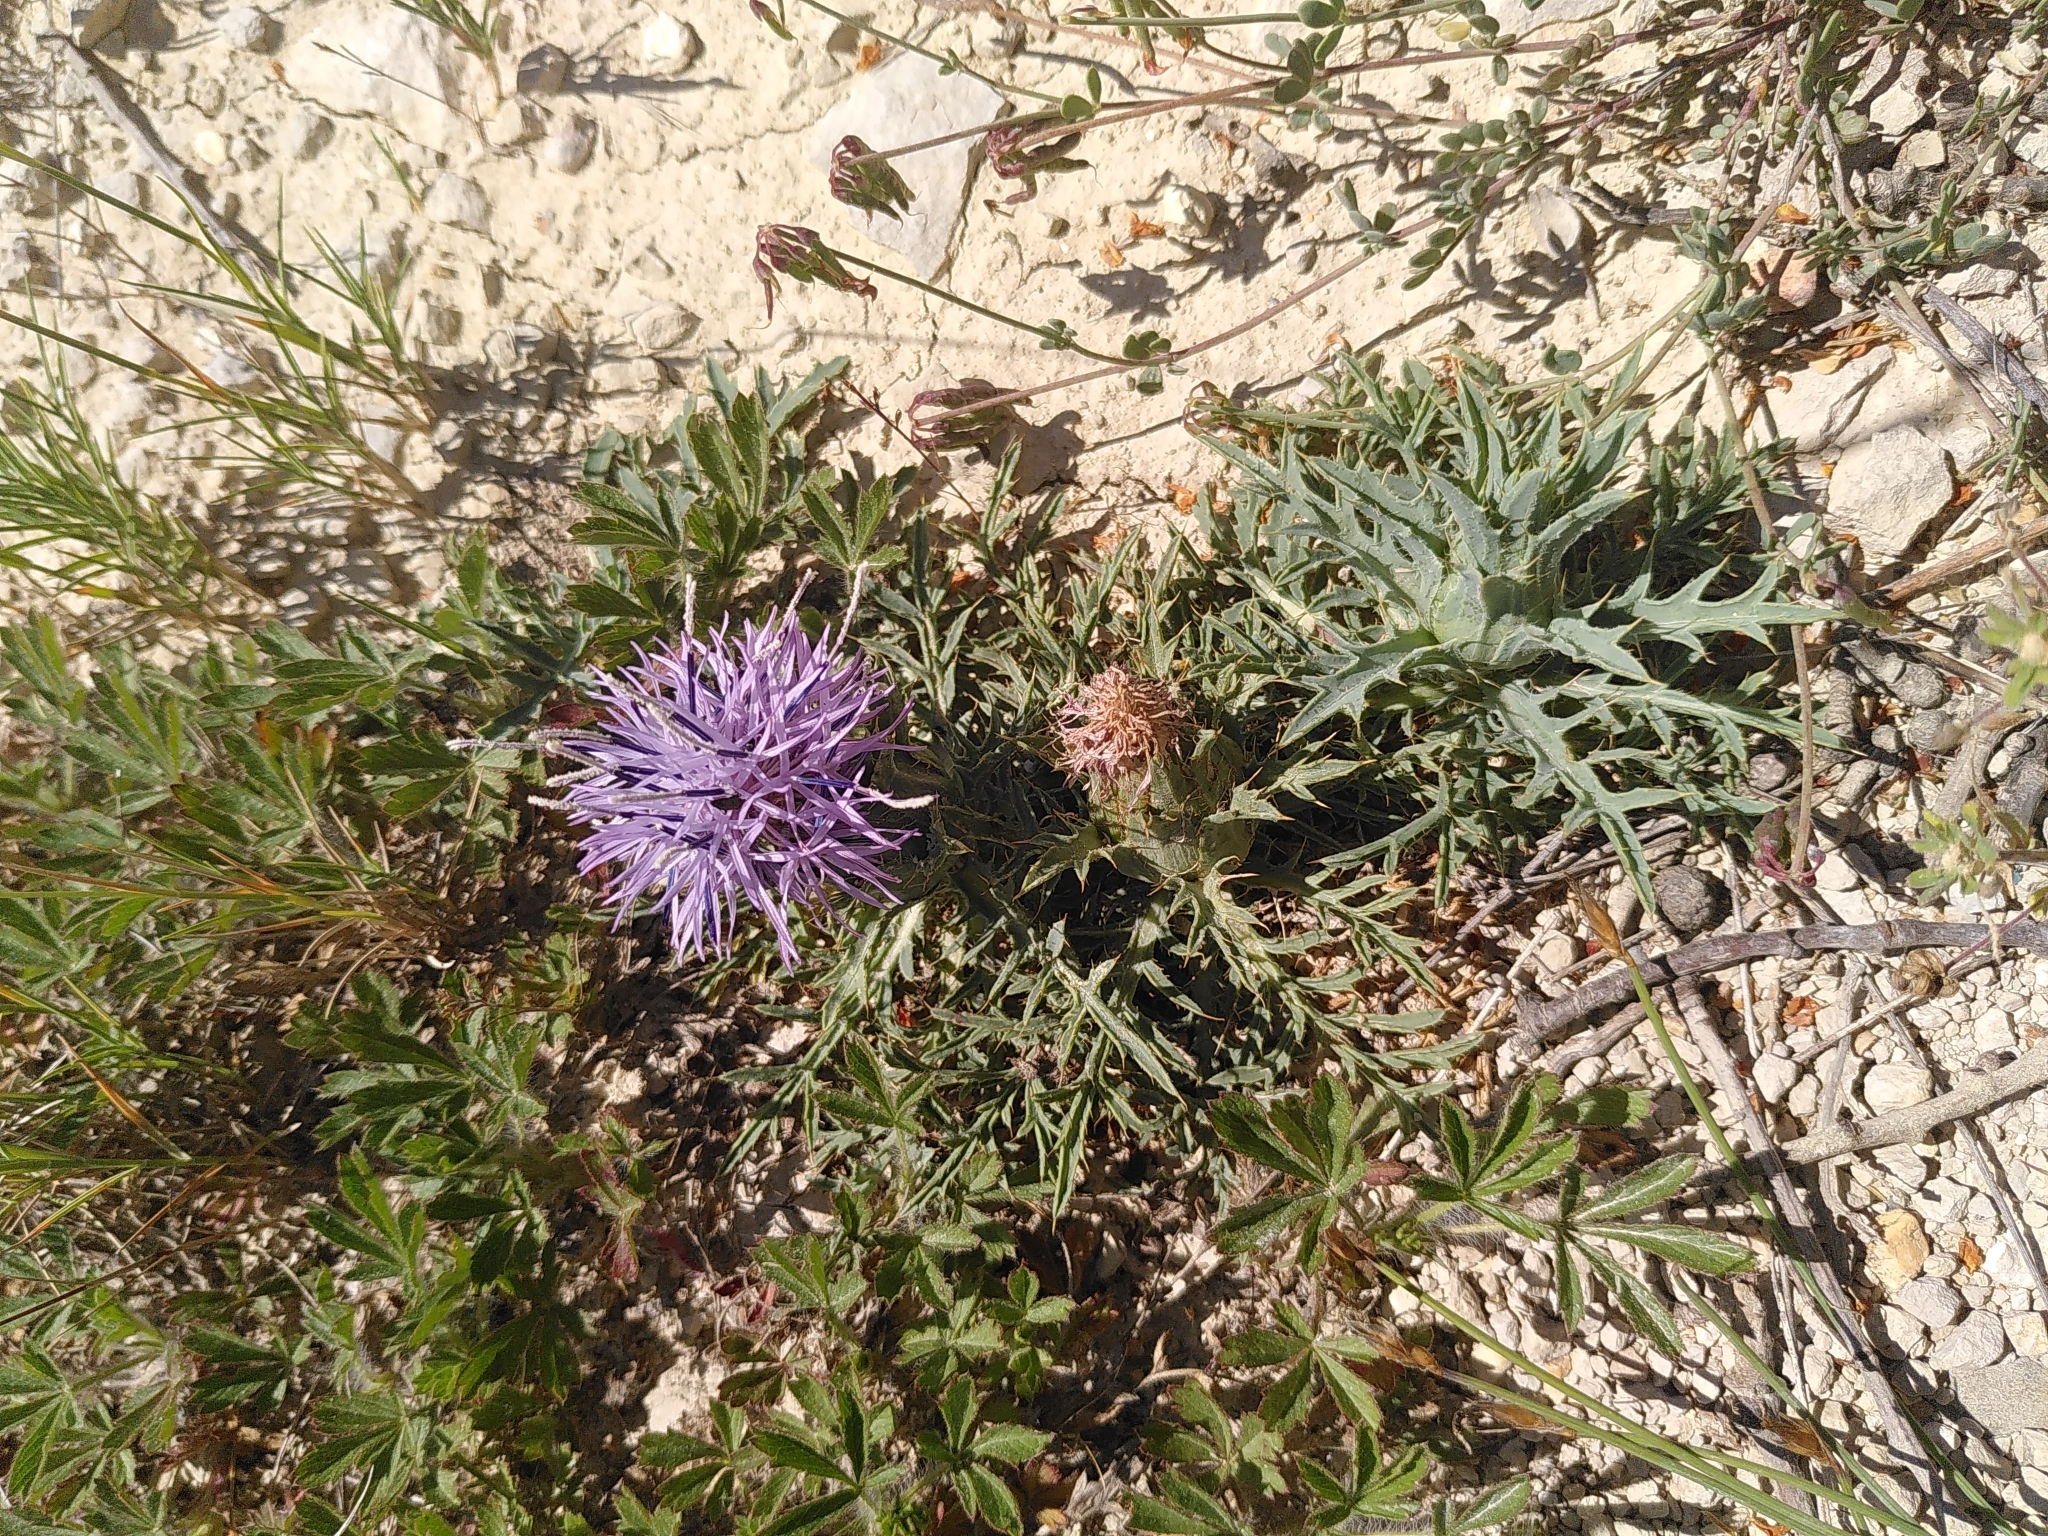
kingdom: Plantae
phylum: Tracheophyta
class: Magnoliopsida
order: Asterales
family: Asteraceae
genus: Carduncellus
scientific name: Carduncellus monspelliensium
